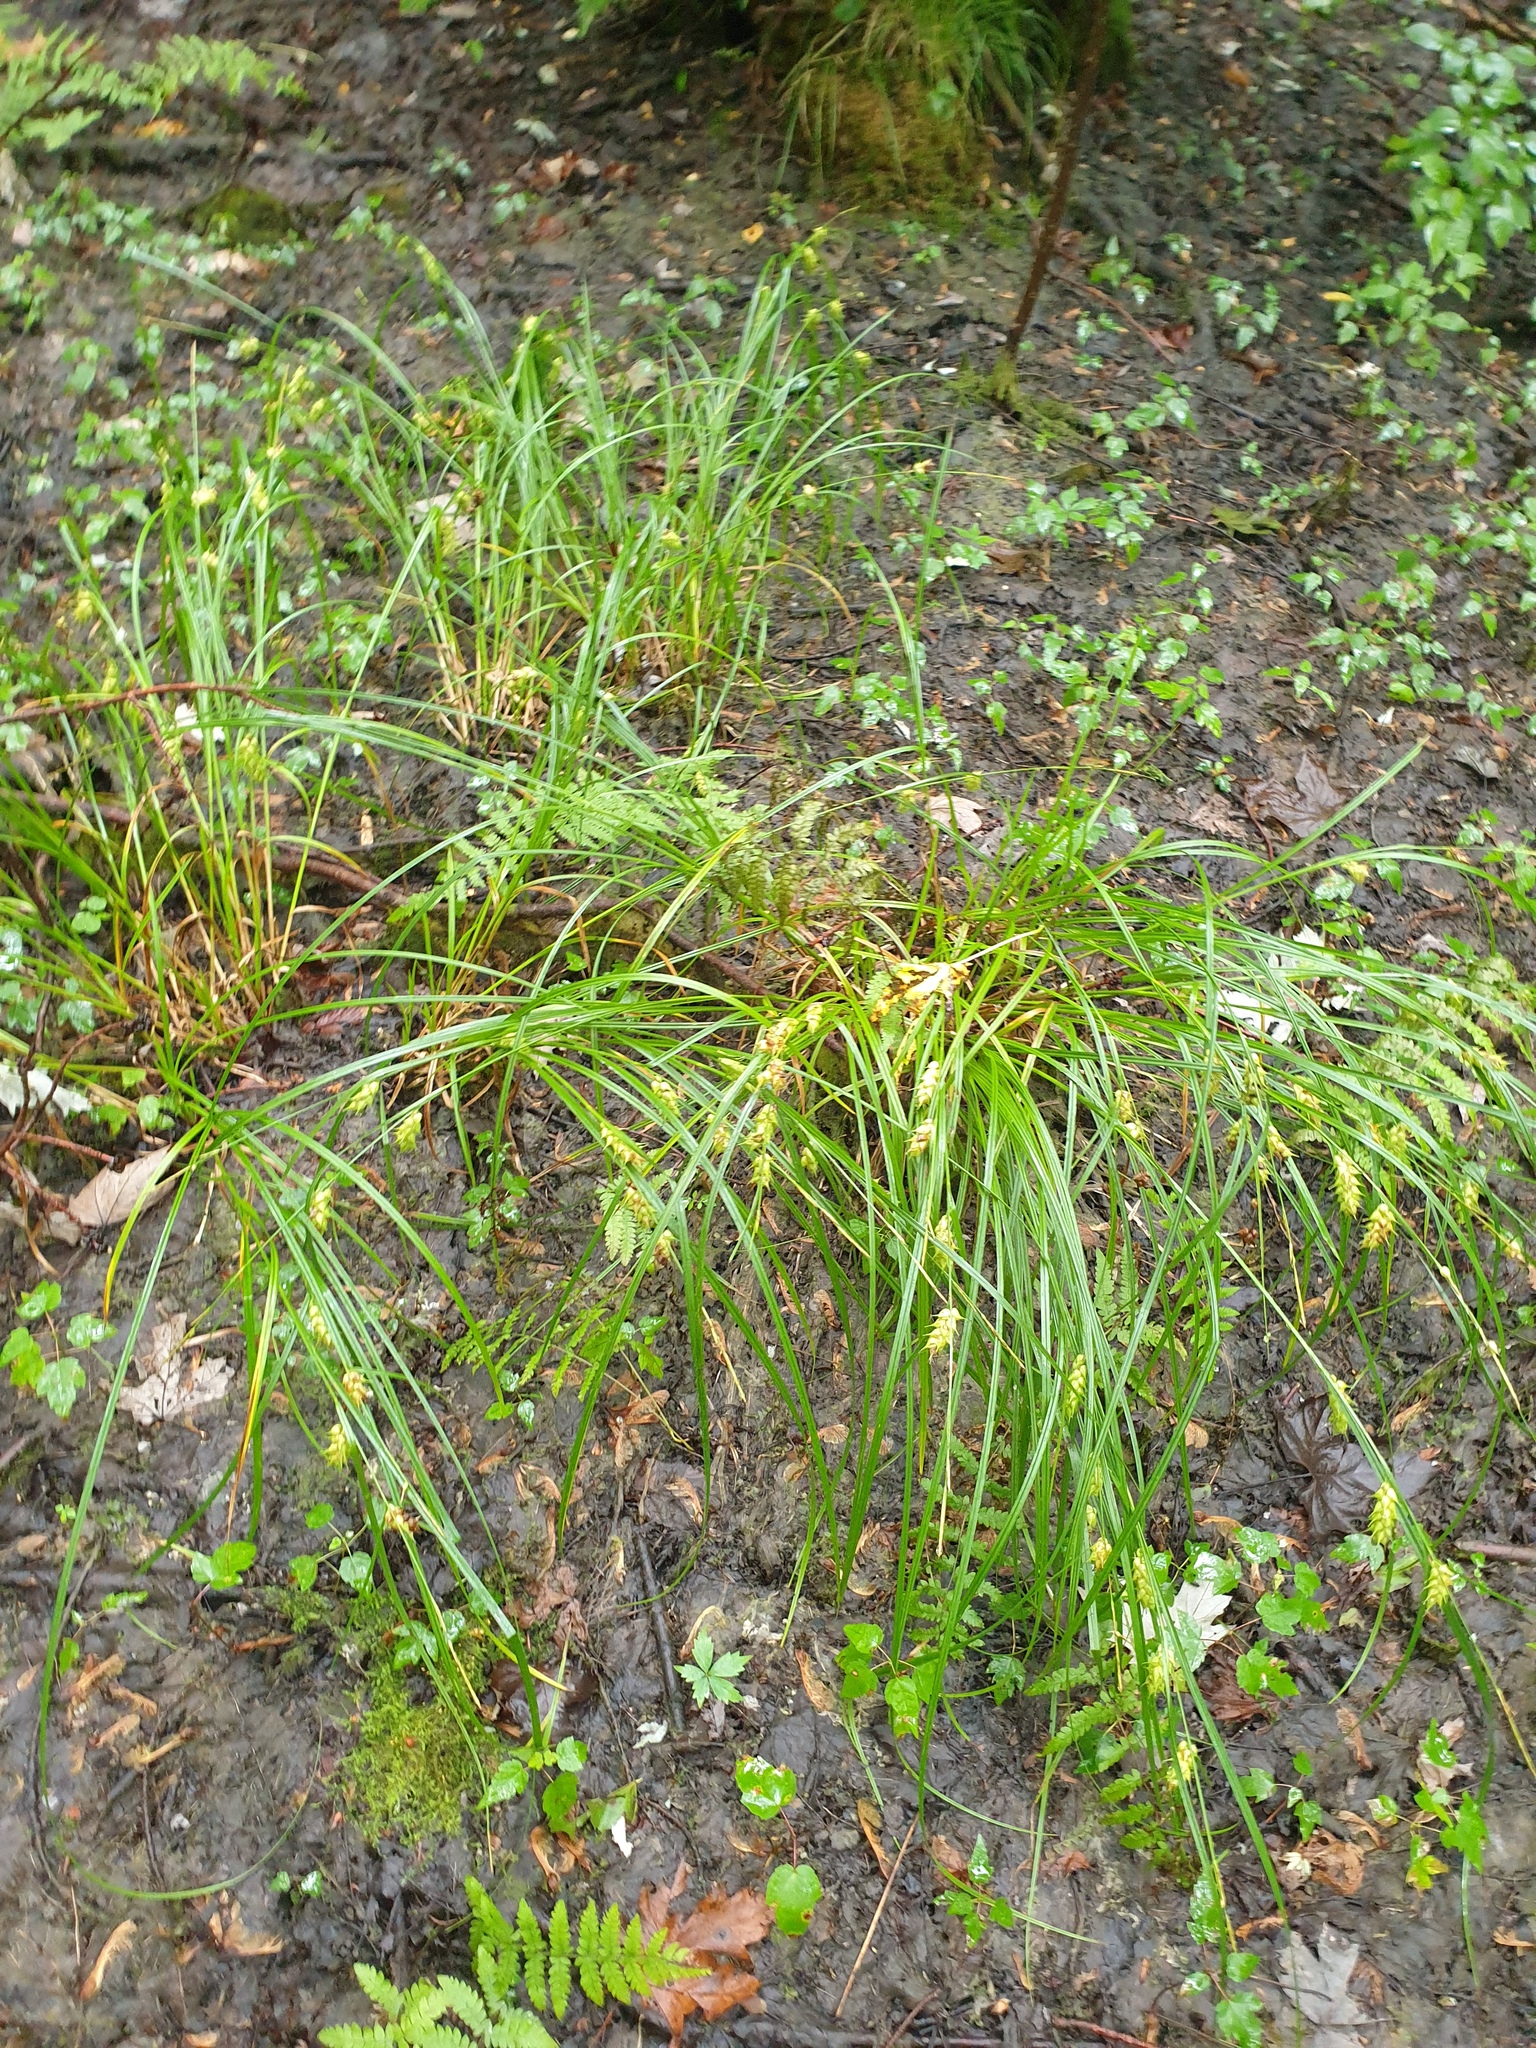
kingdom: Plantae
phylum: Tracheophyta
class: Liliopsida
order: Poales
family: Cyperaceae
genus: Carex
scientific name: Carex tuckermanii
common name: Tuckerman's sedge
